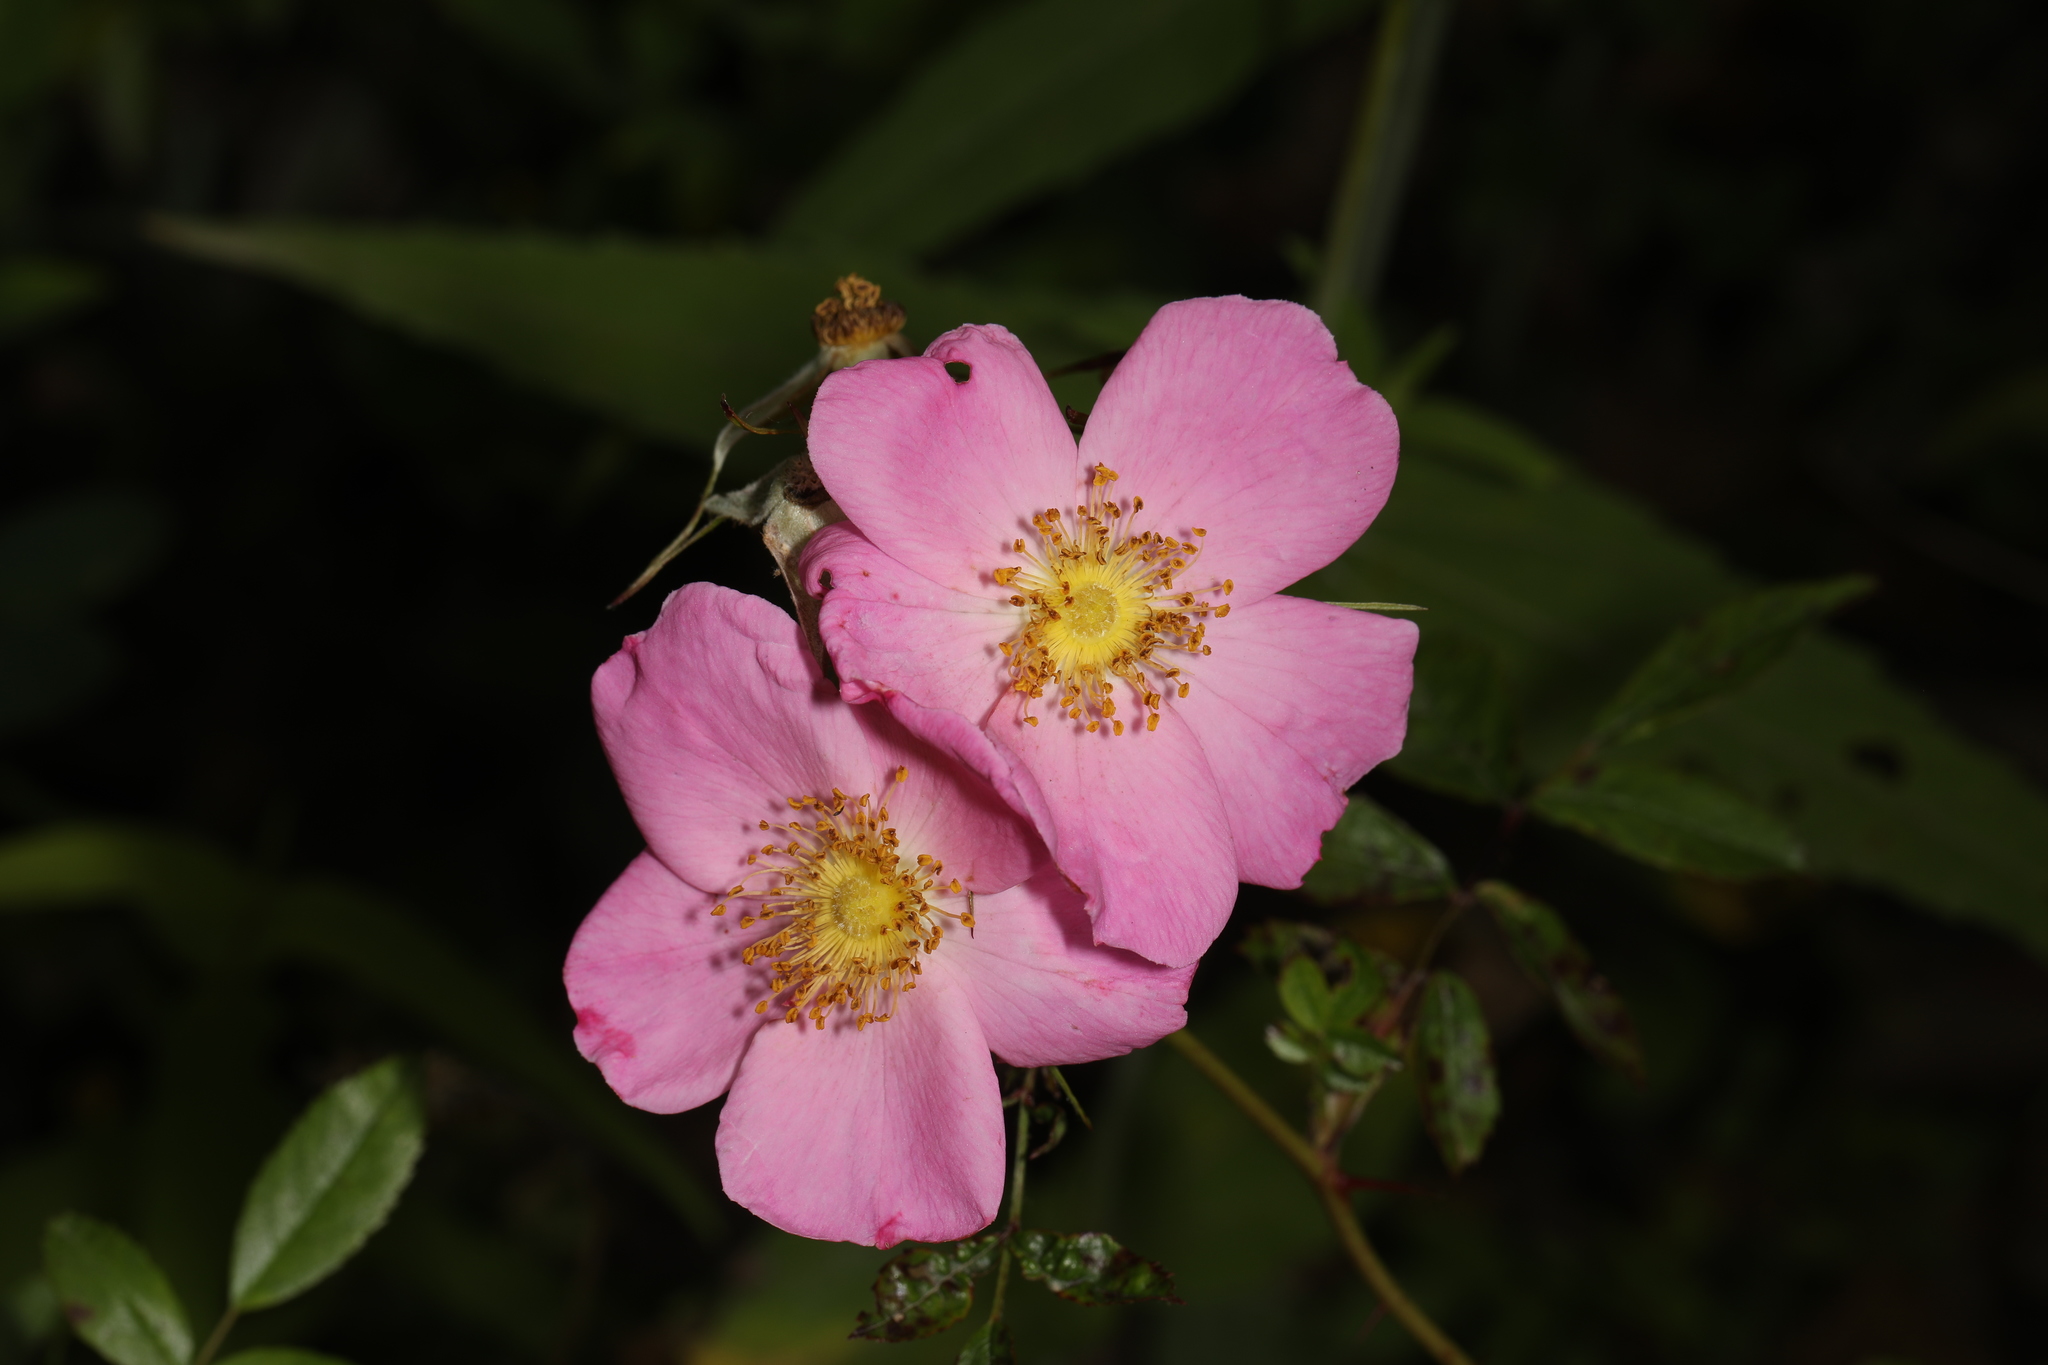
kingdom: Plantae
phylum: Tracheophyta
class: Magnoliopsida
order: Rosales
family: Rosaceae
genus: Rosa
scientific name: Rosa carolina
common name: Pasture rose
